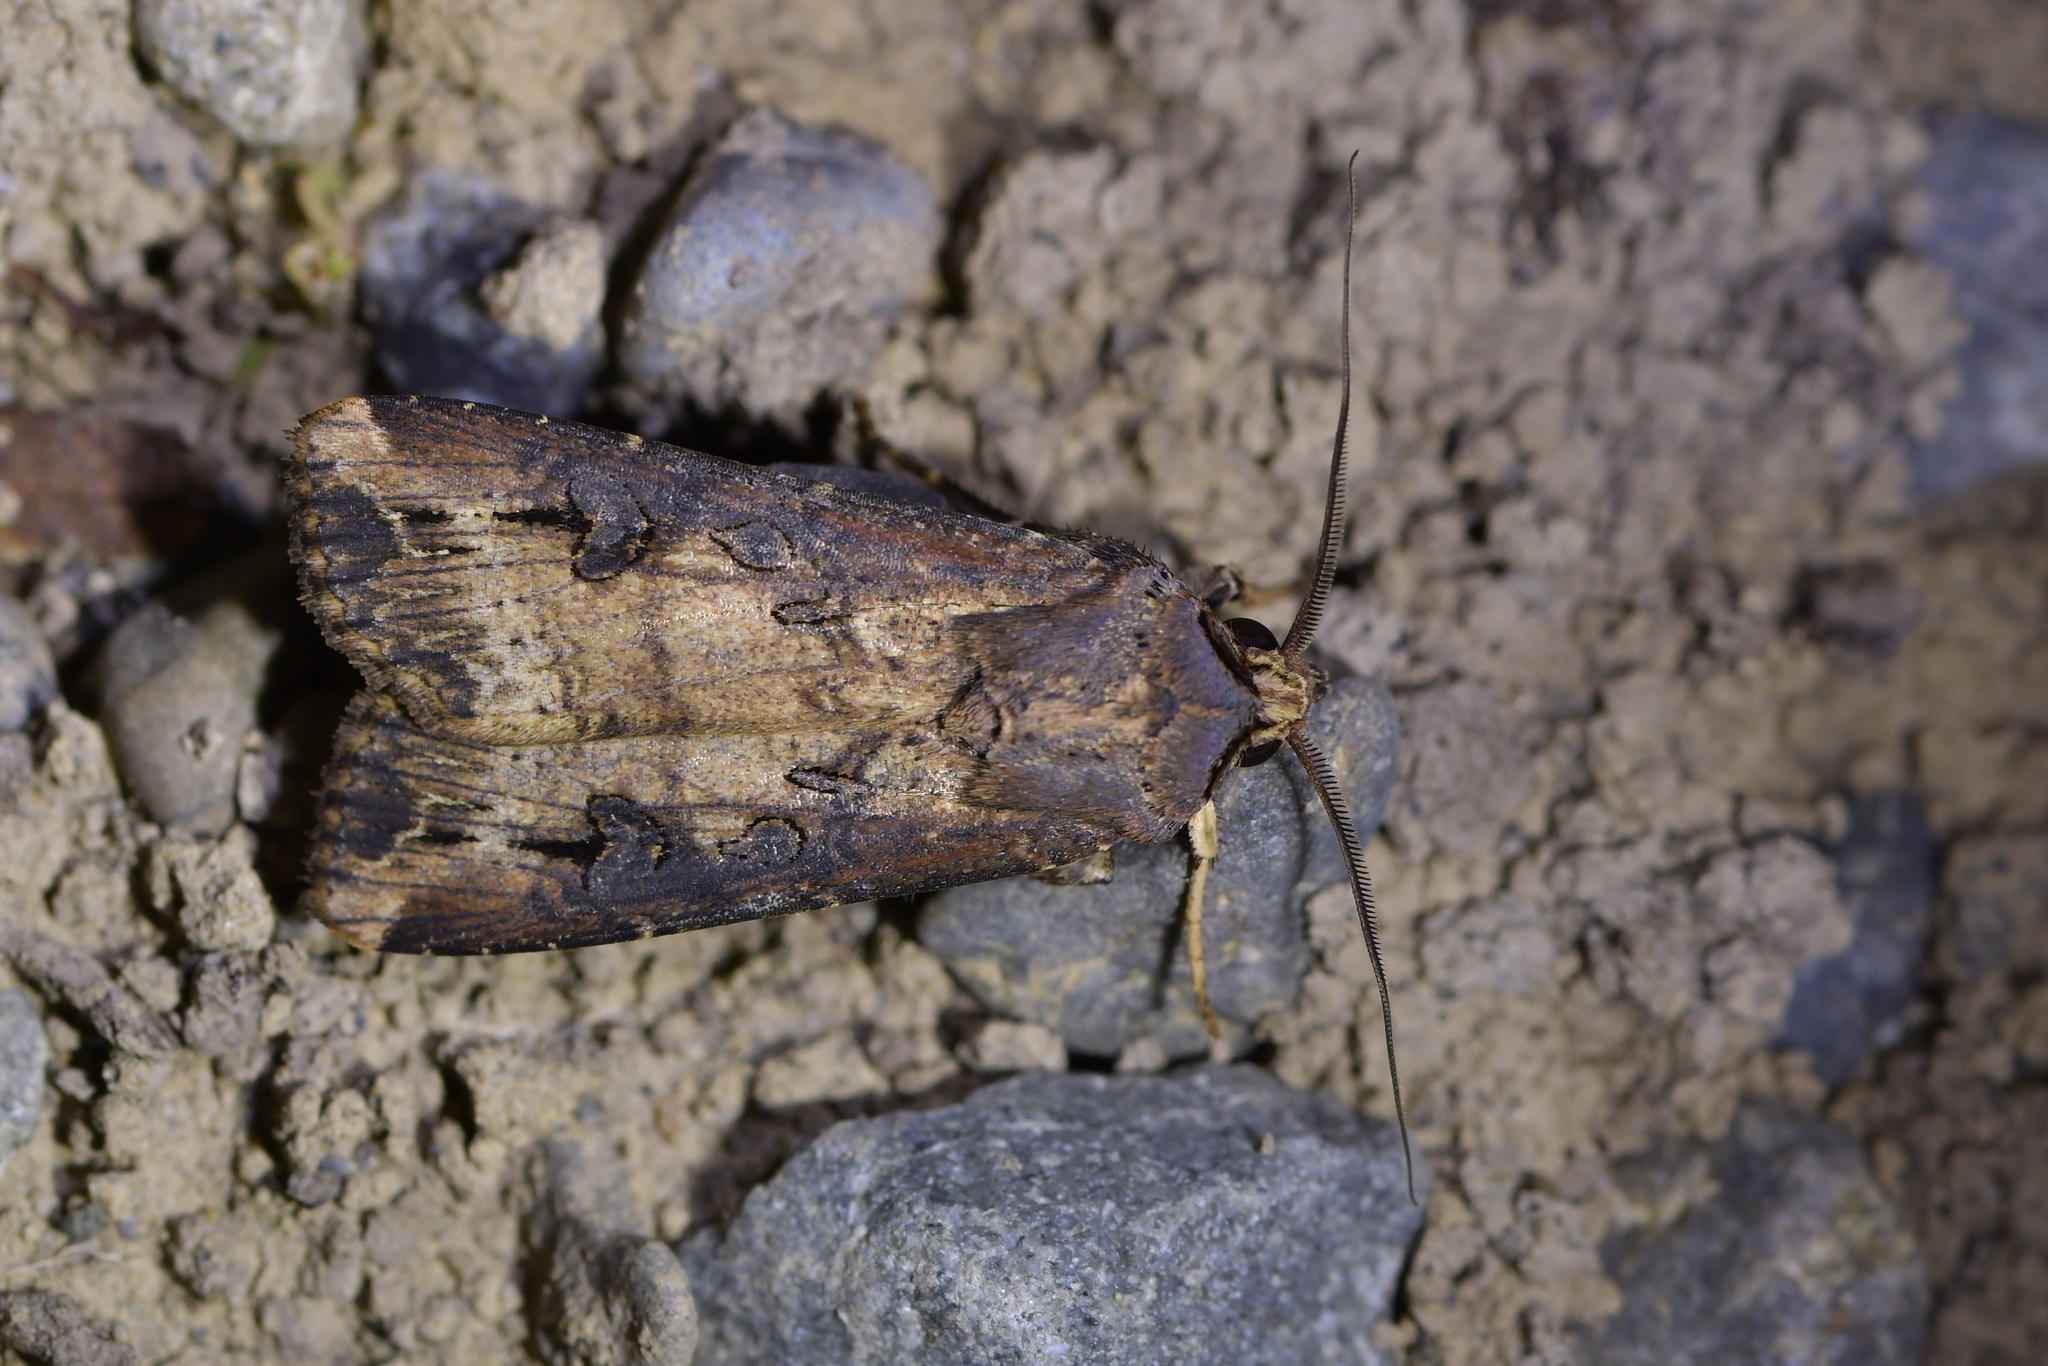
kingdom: Animalia
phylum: Arthropoda
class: Insecta
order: Lepidoptera
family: Noctuidae
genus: Agrotis
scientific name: Agrotis ipsilon
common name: Dark sword-grass
